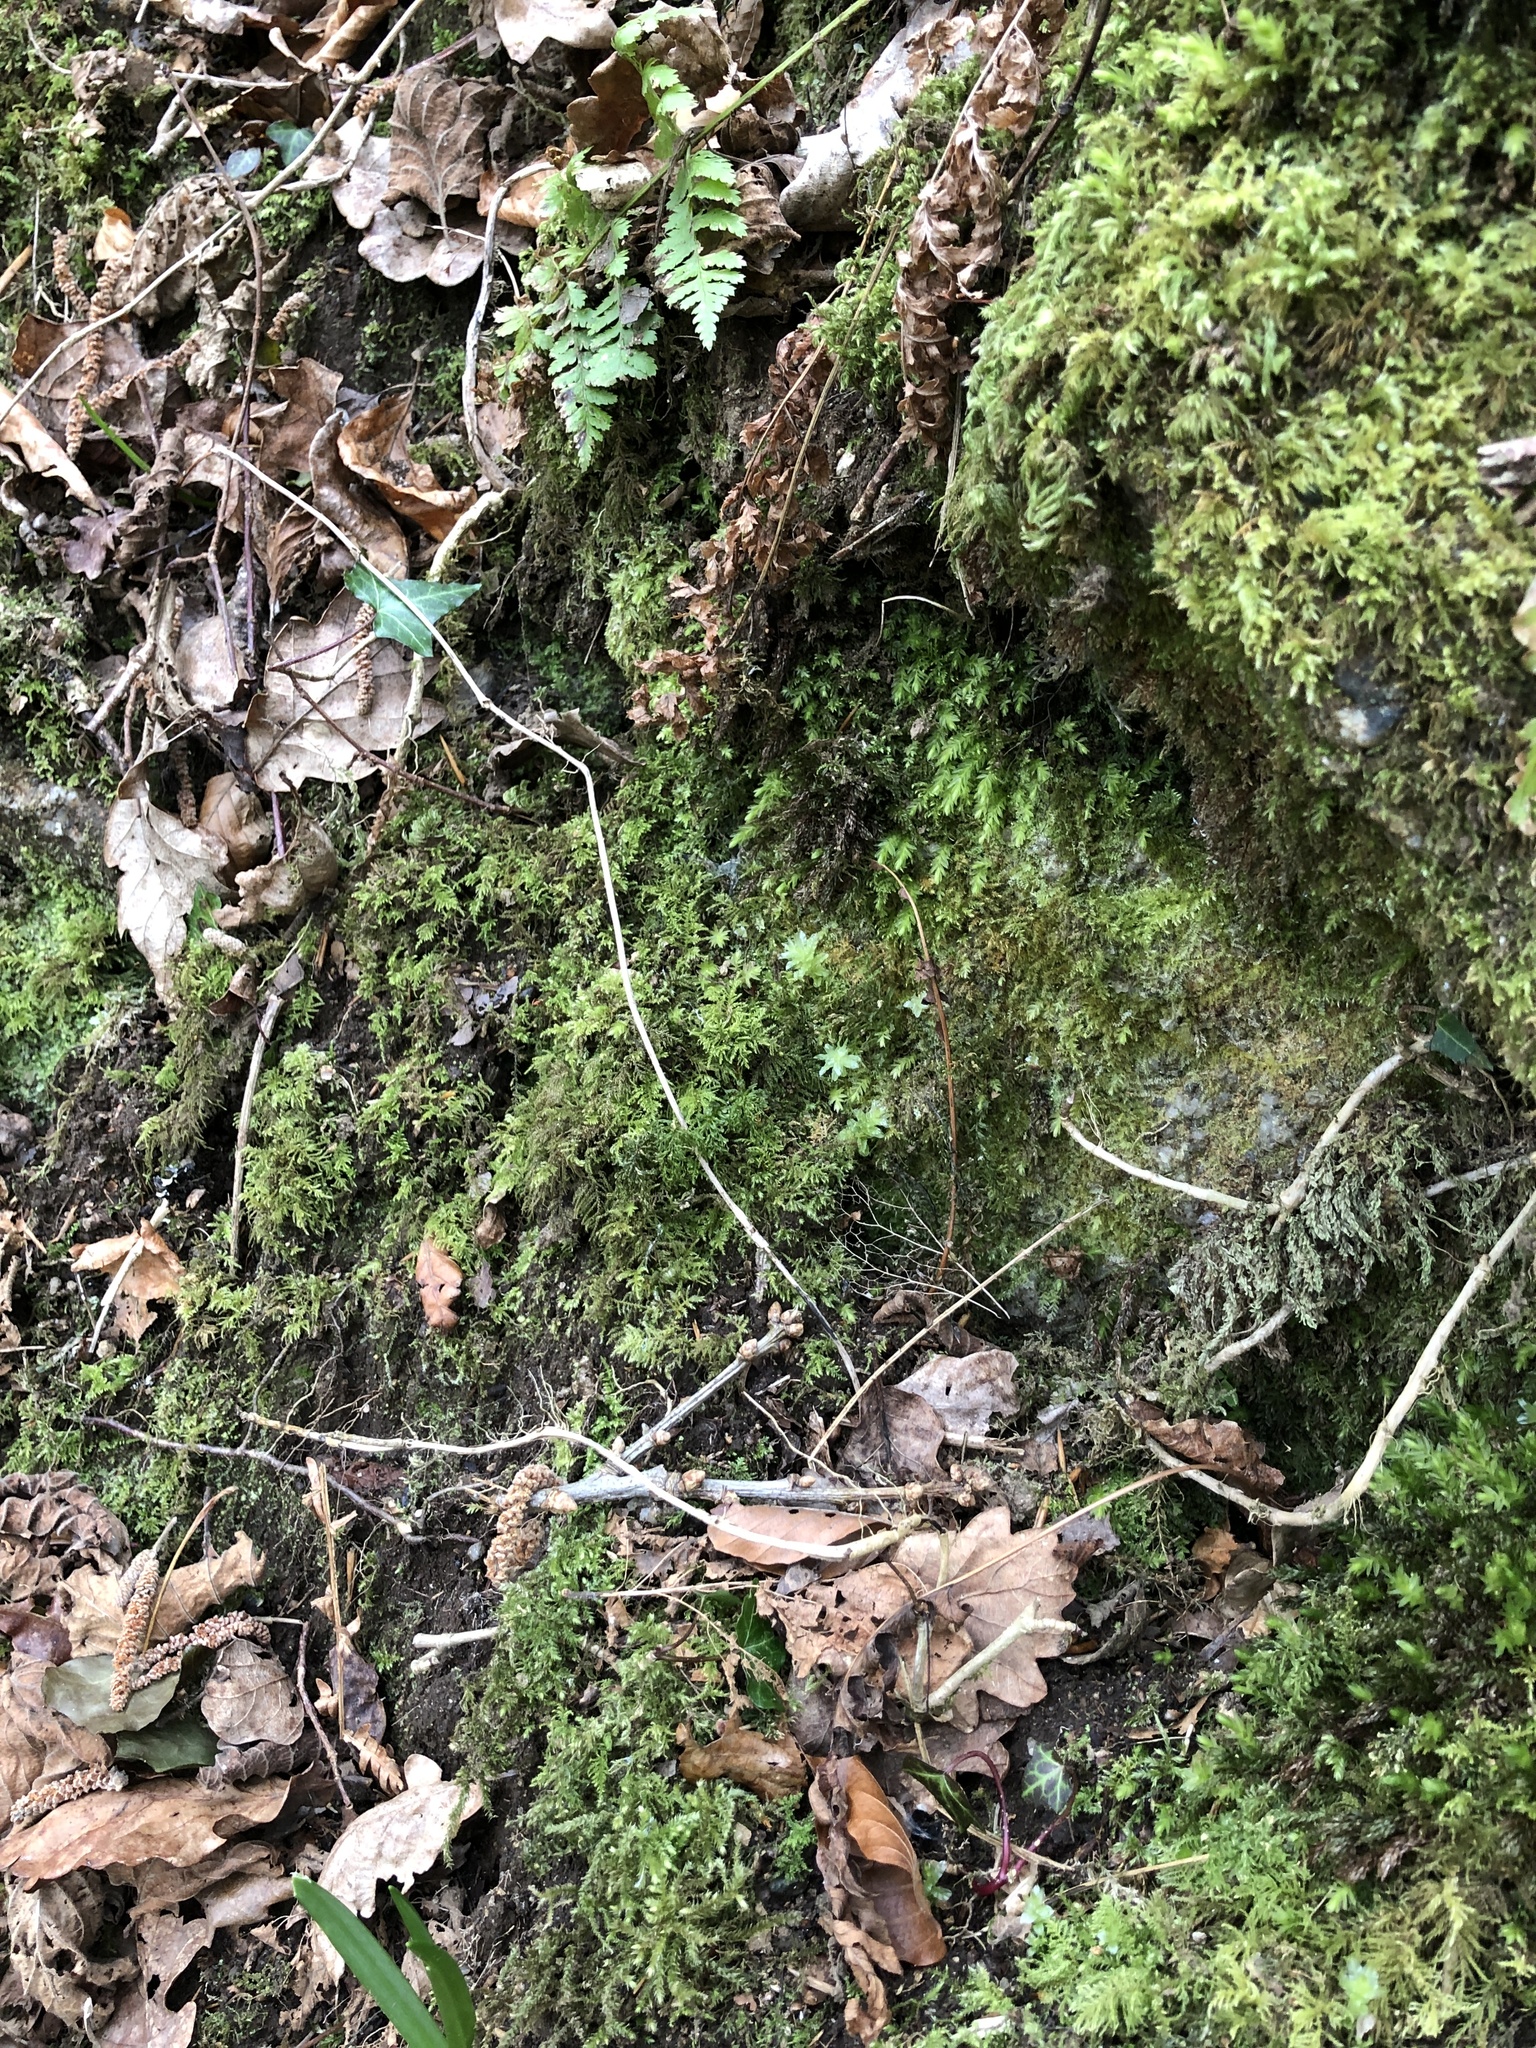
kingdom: Plantae
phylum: Bryophyta
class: Bryopsida
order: Bryales
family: Mniaceae
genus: Plagiomnium
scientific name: Plagiomnium undulatum
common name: Hart's-tongue thyme-moss
